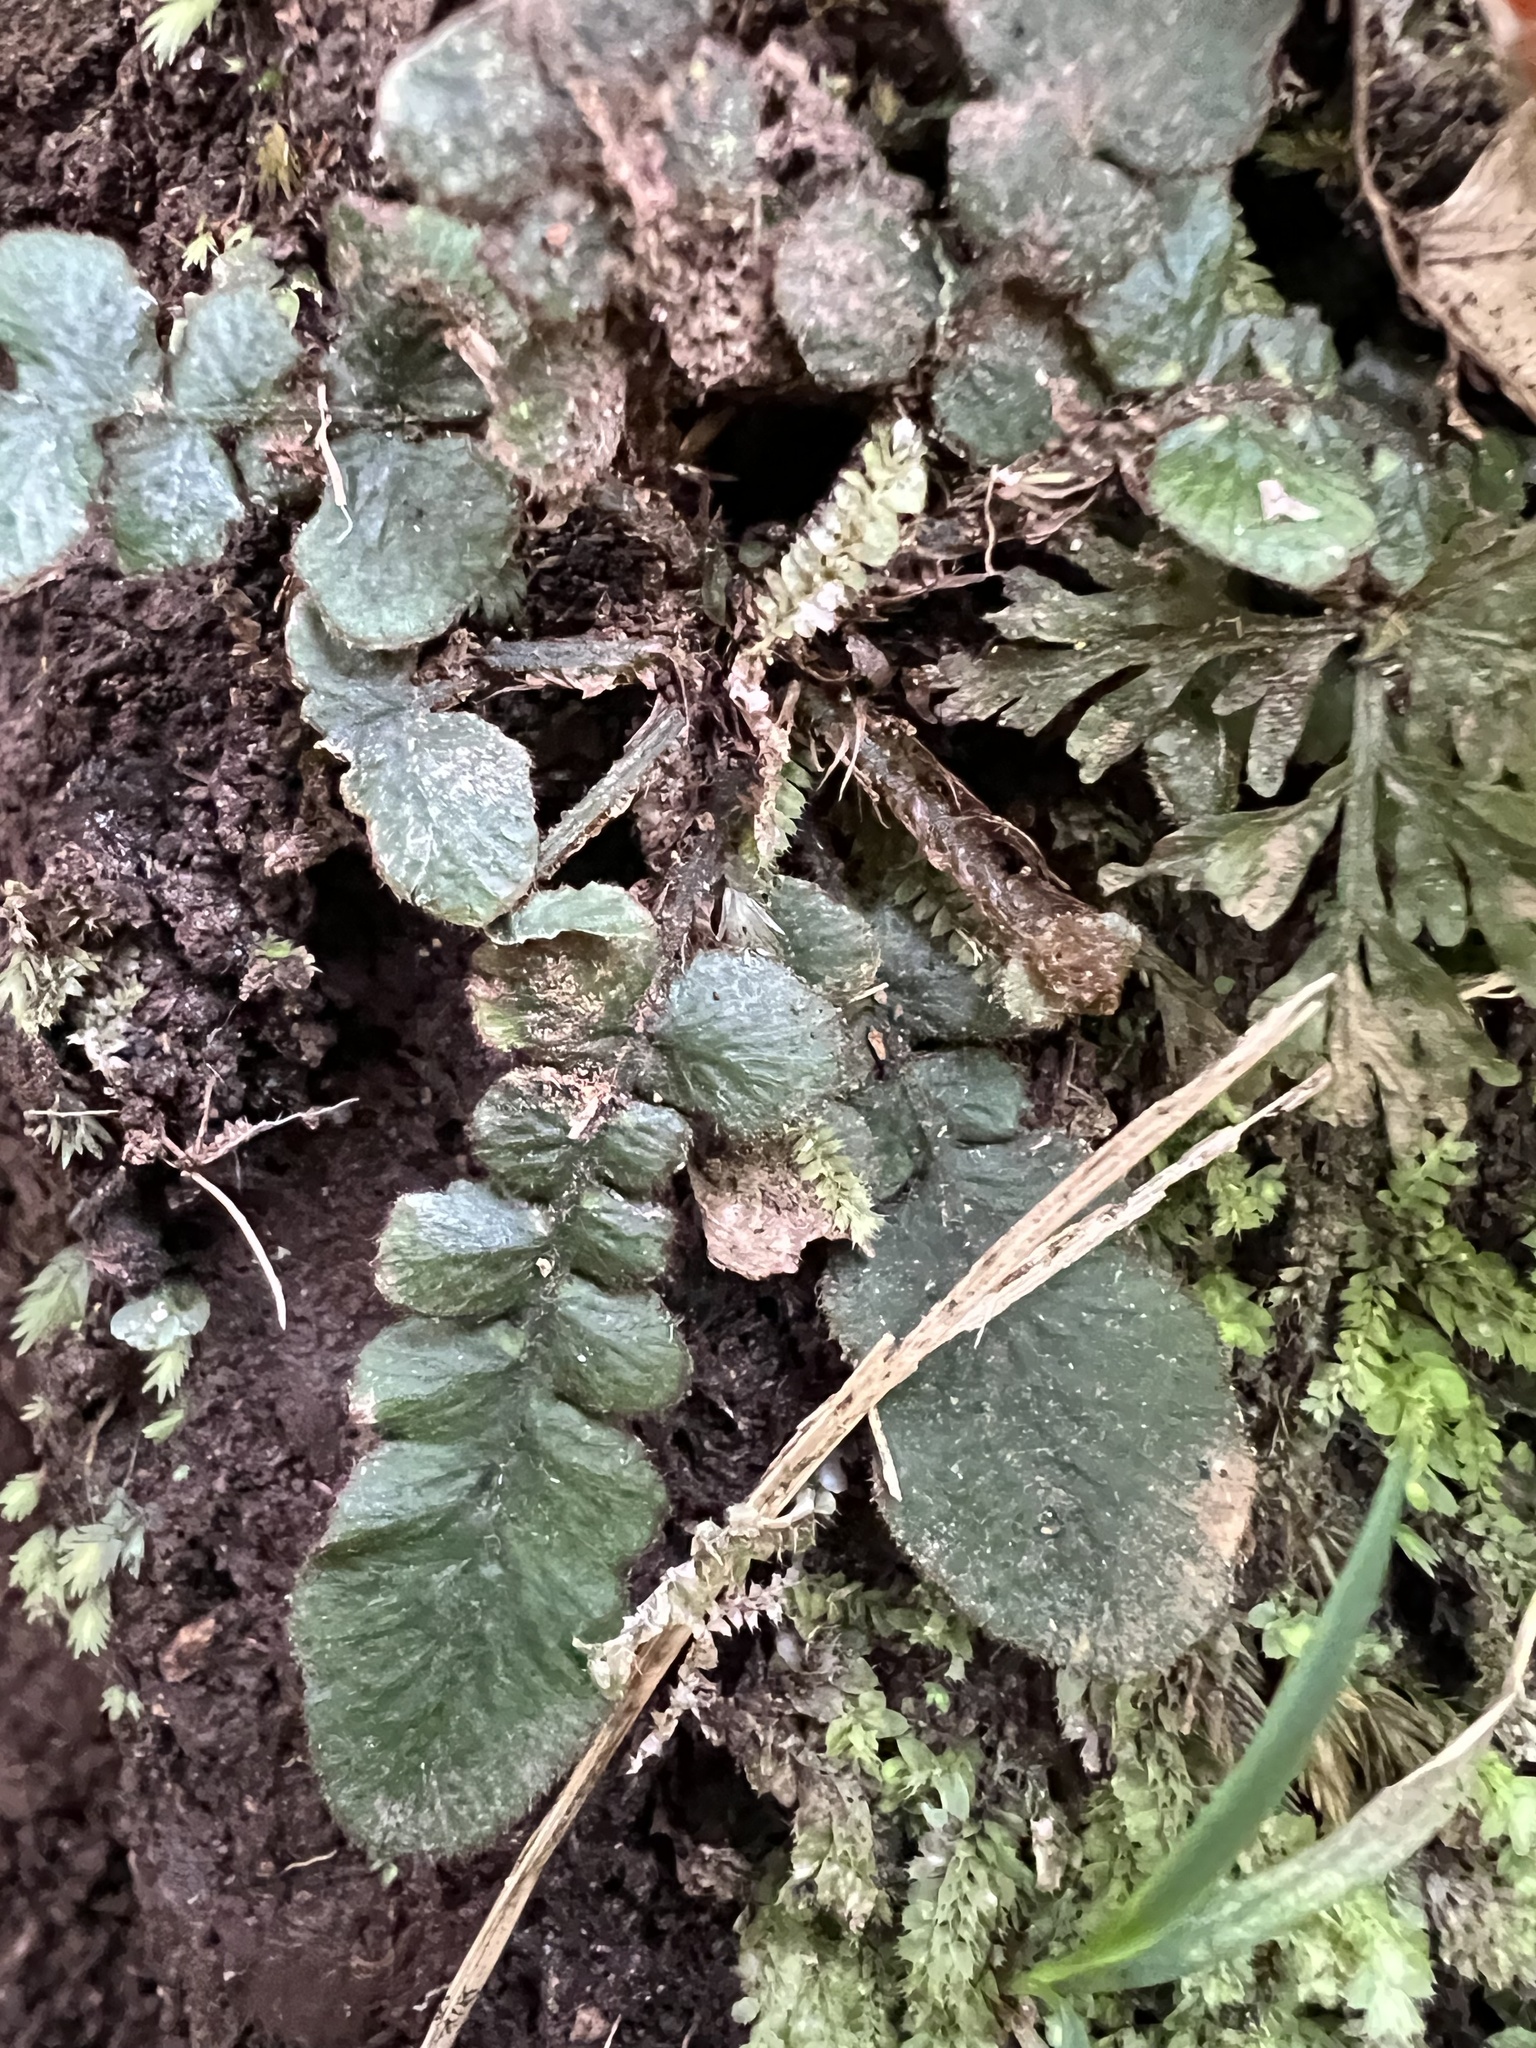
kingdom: Plantae
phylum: Tracheophyta
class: Polypodiopsida
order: Polypodiales
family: Blechnaceae
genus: Cranfillia
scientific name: Cranfillia nigra
